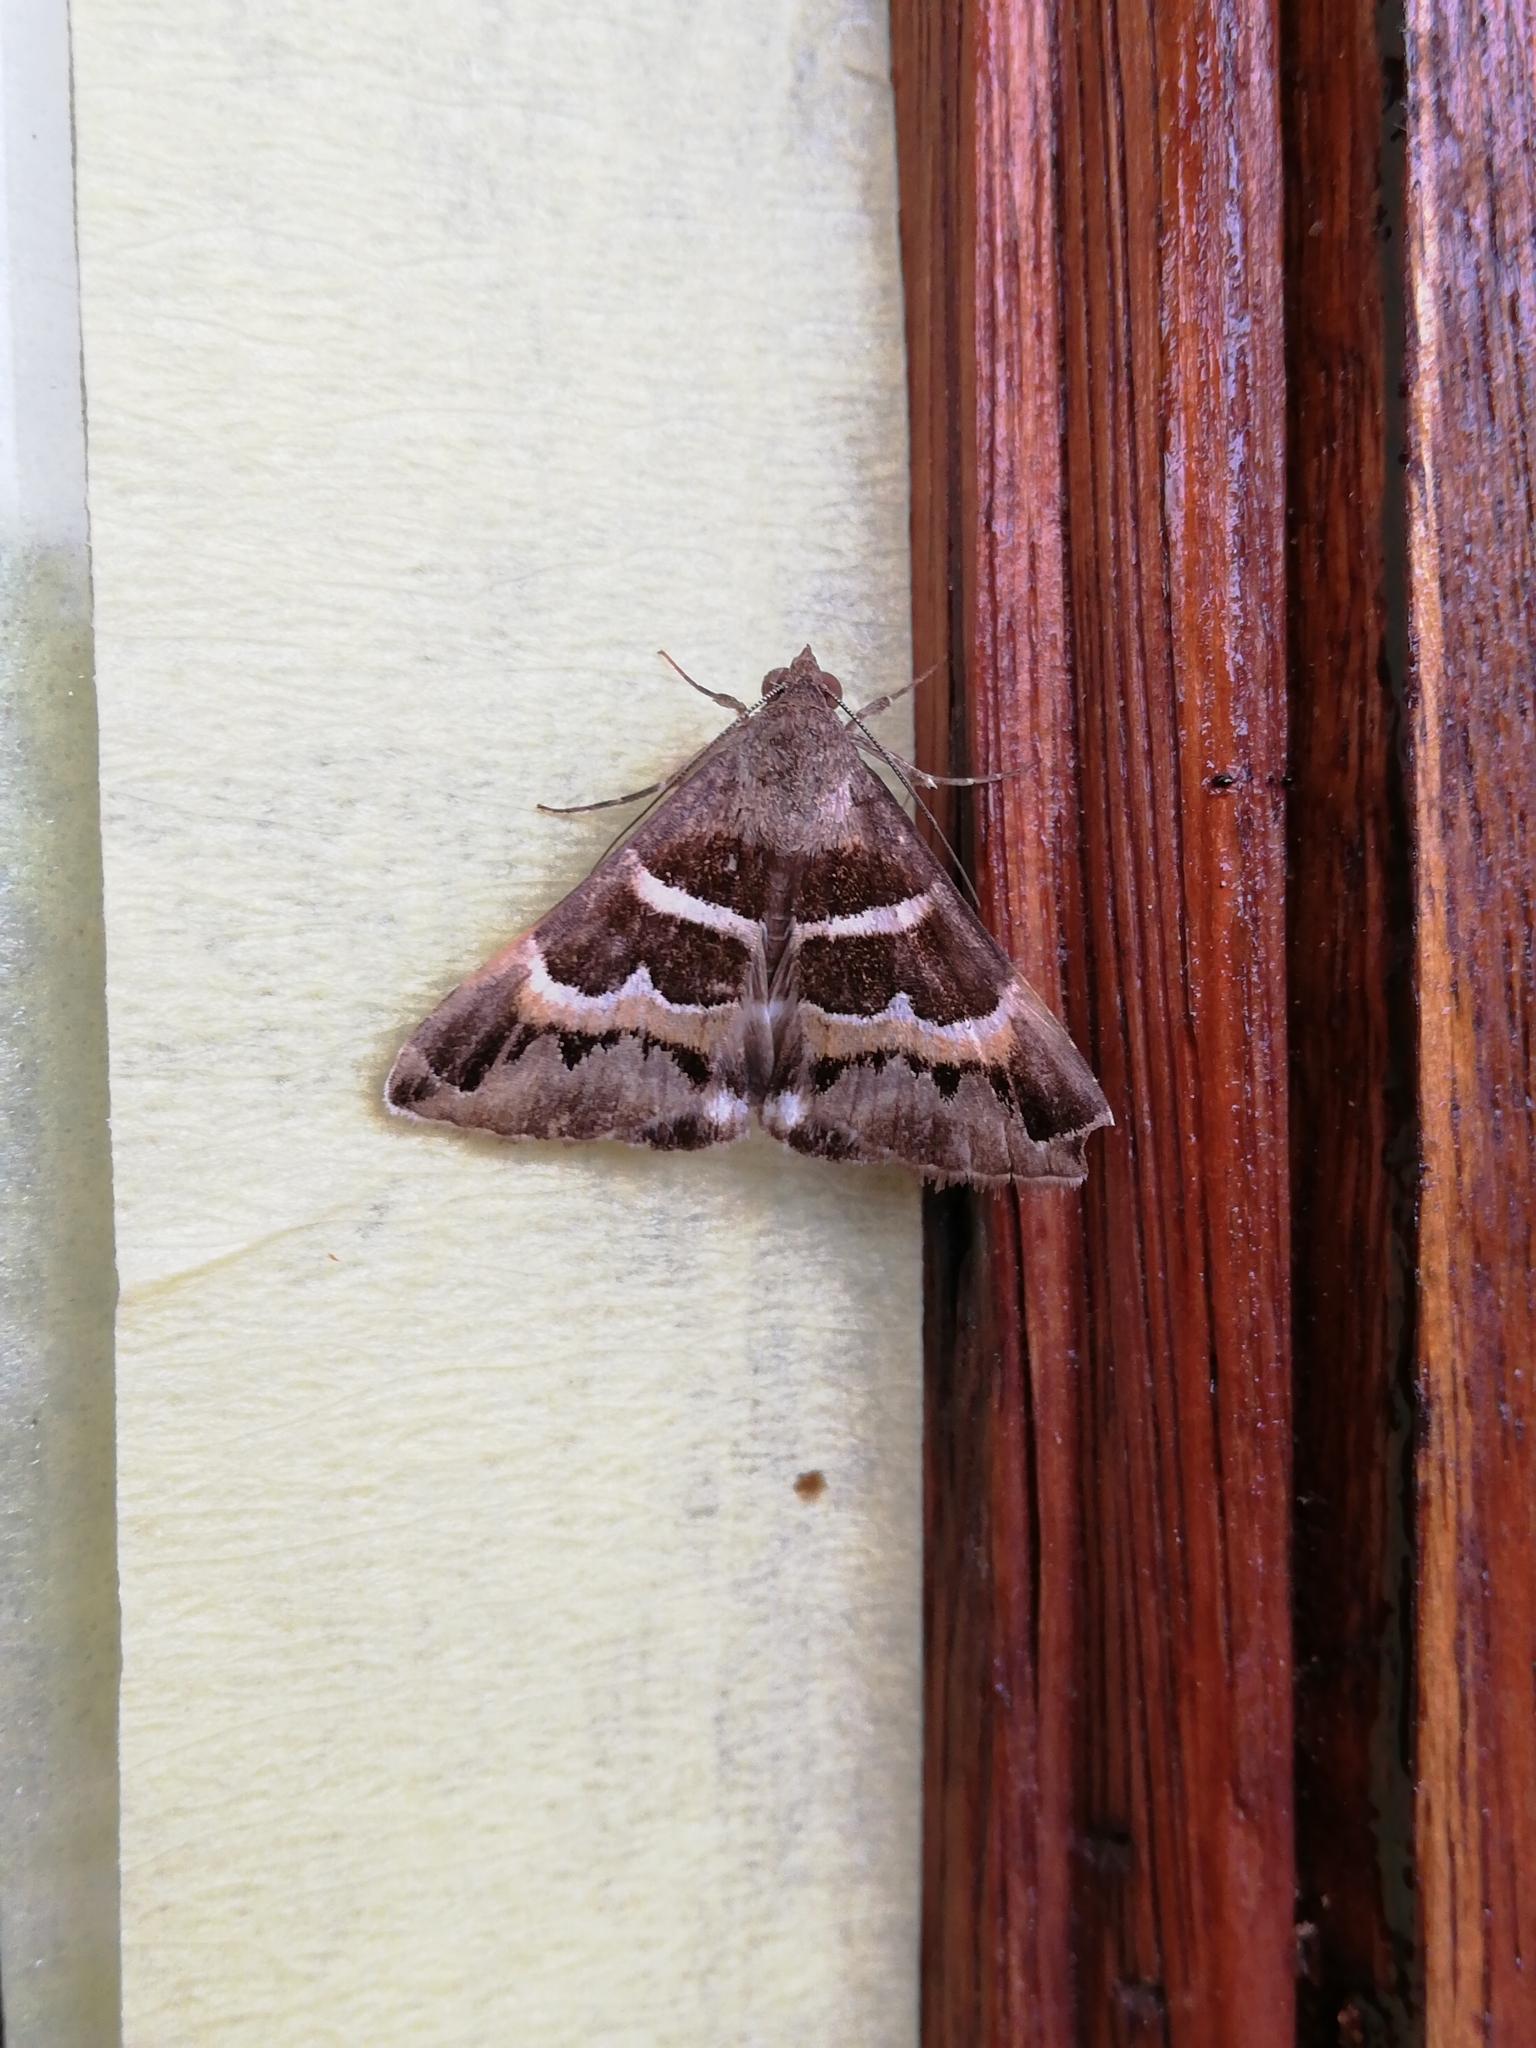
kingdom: Animalia
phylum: Arthropoda
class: Insecta
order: Lepidoptera
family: Erebidae
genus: Grammodes
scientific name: Grammodes stolida
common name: Geometrician
